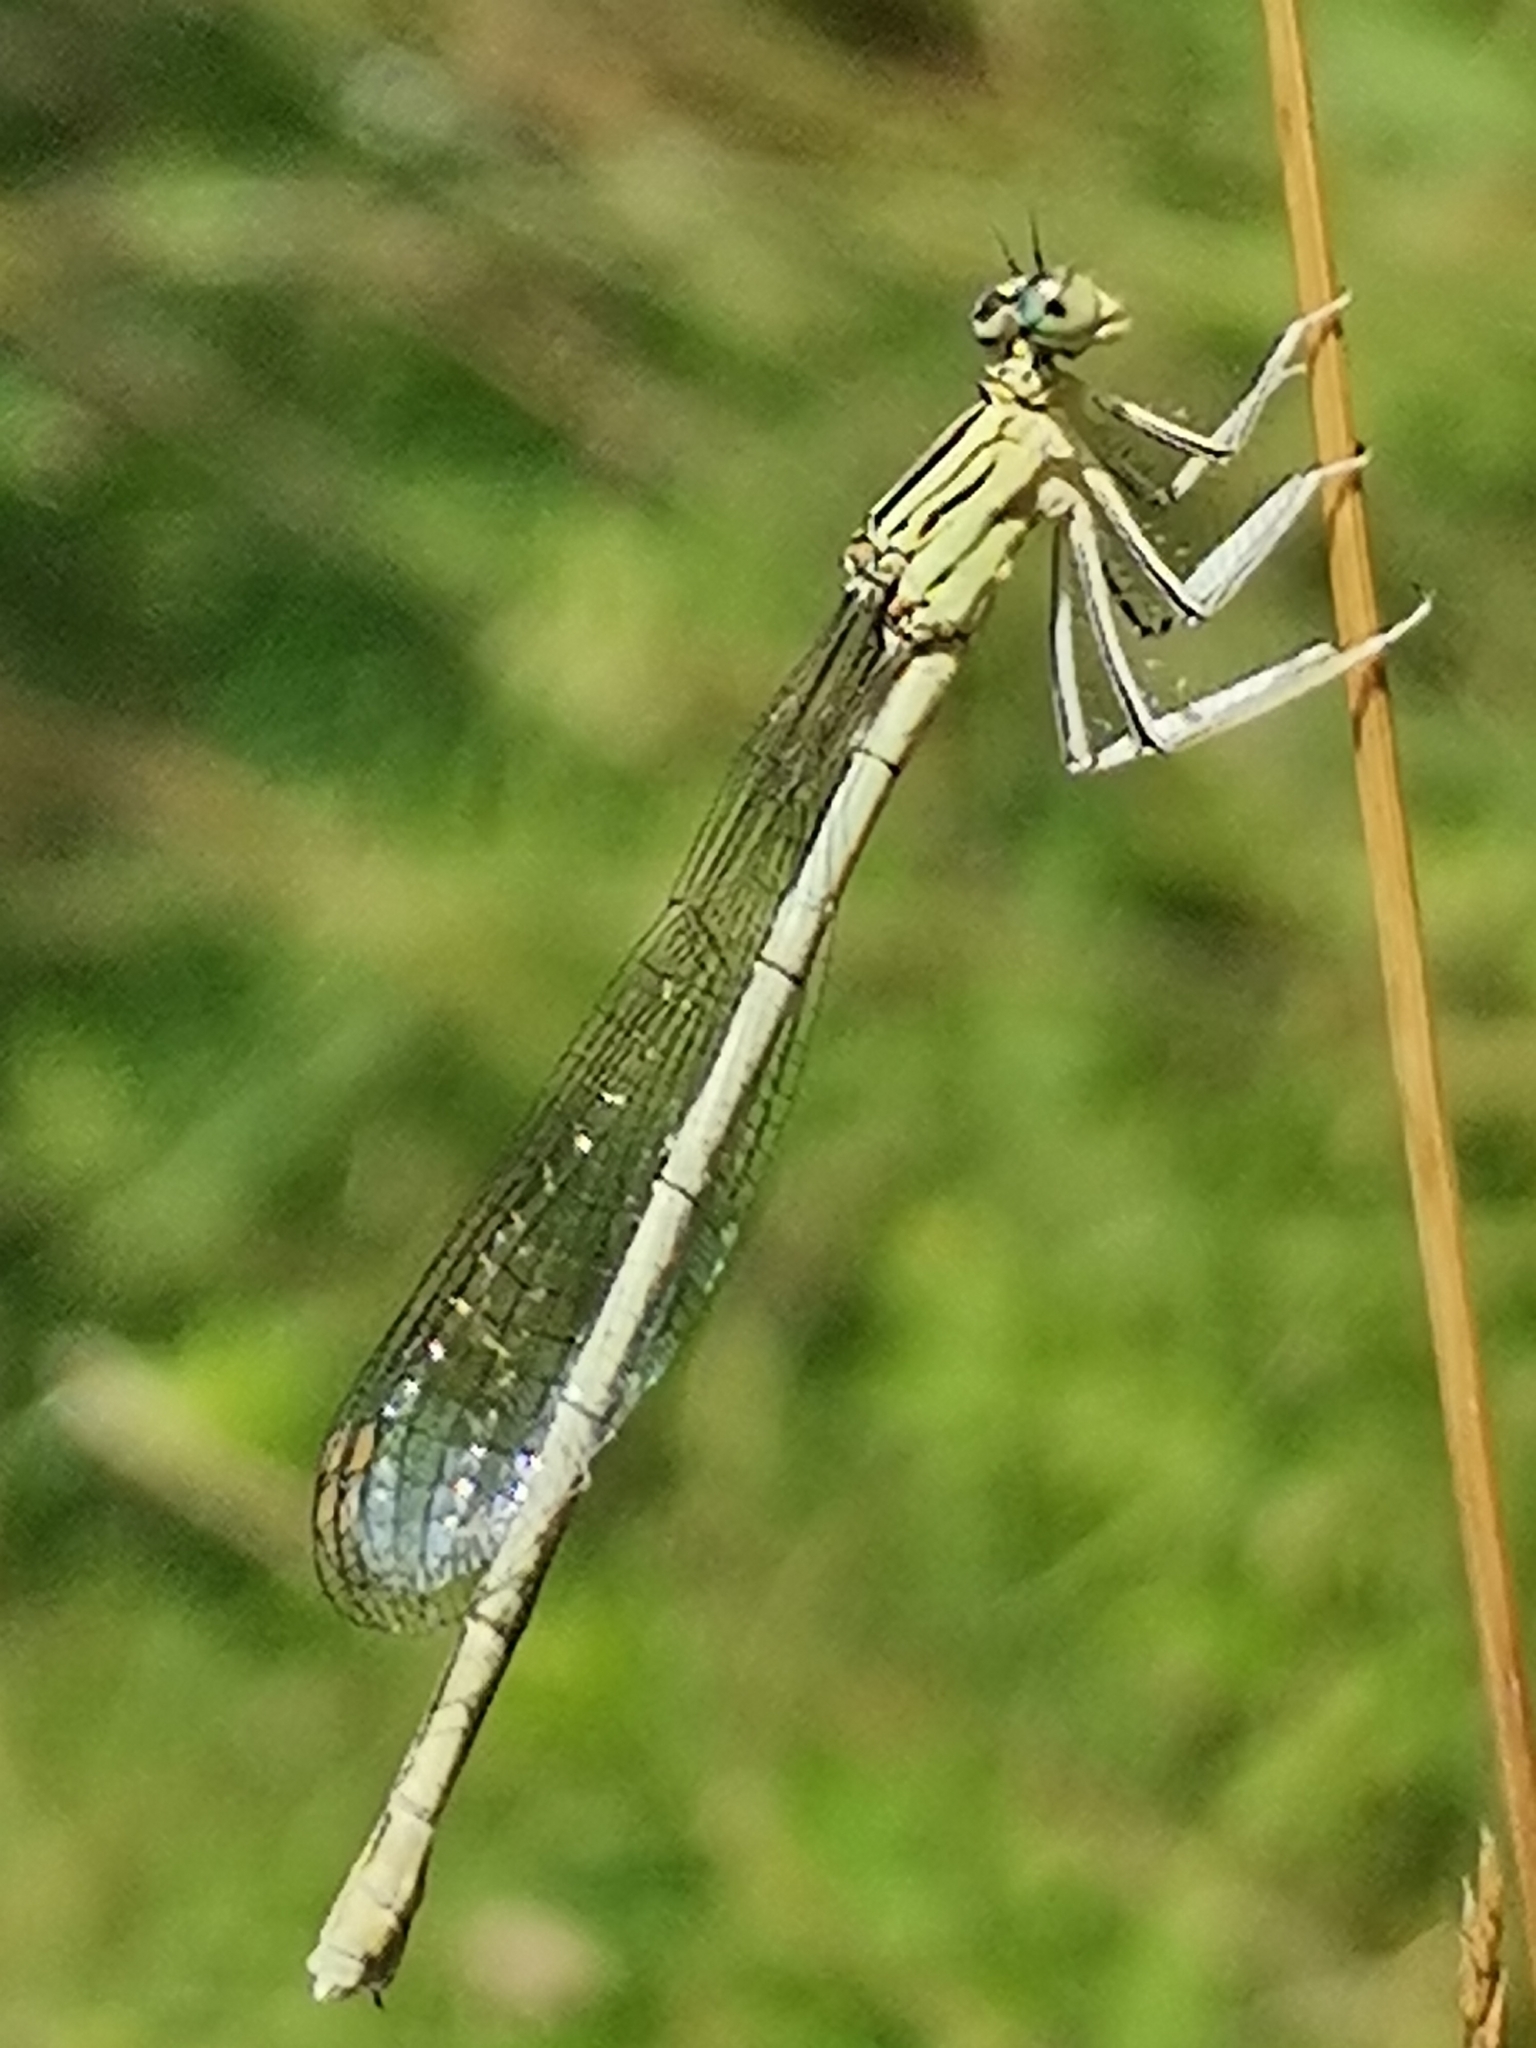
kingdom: Animalia
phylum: Arthropoda
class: Insecta
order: Odonata
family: Platycnemididae
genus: Platycnemis
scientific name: Platycnemis pennipes
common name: White-legged damselfly
